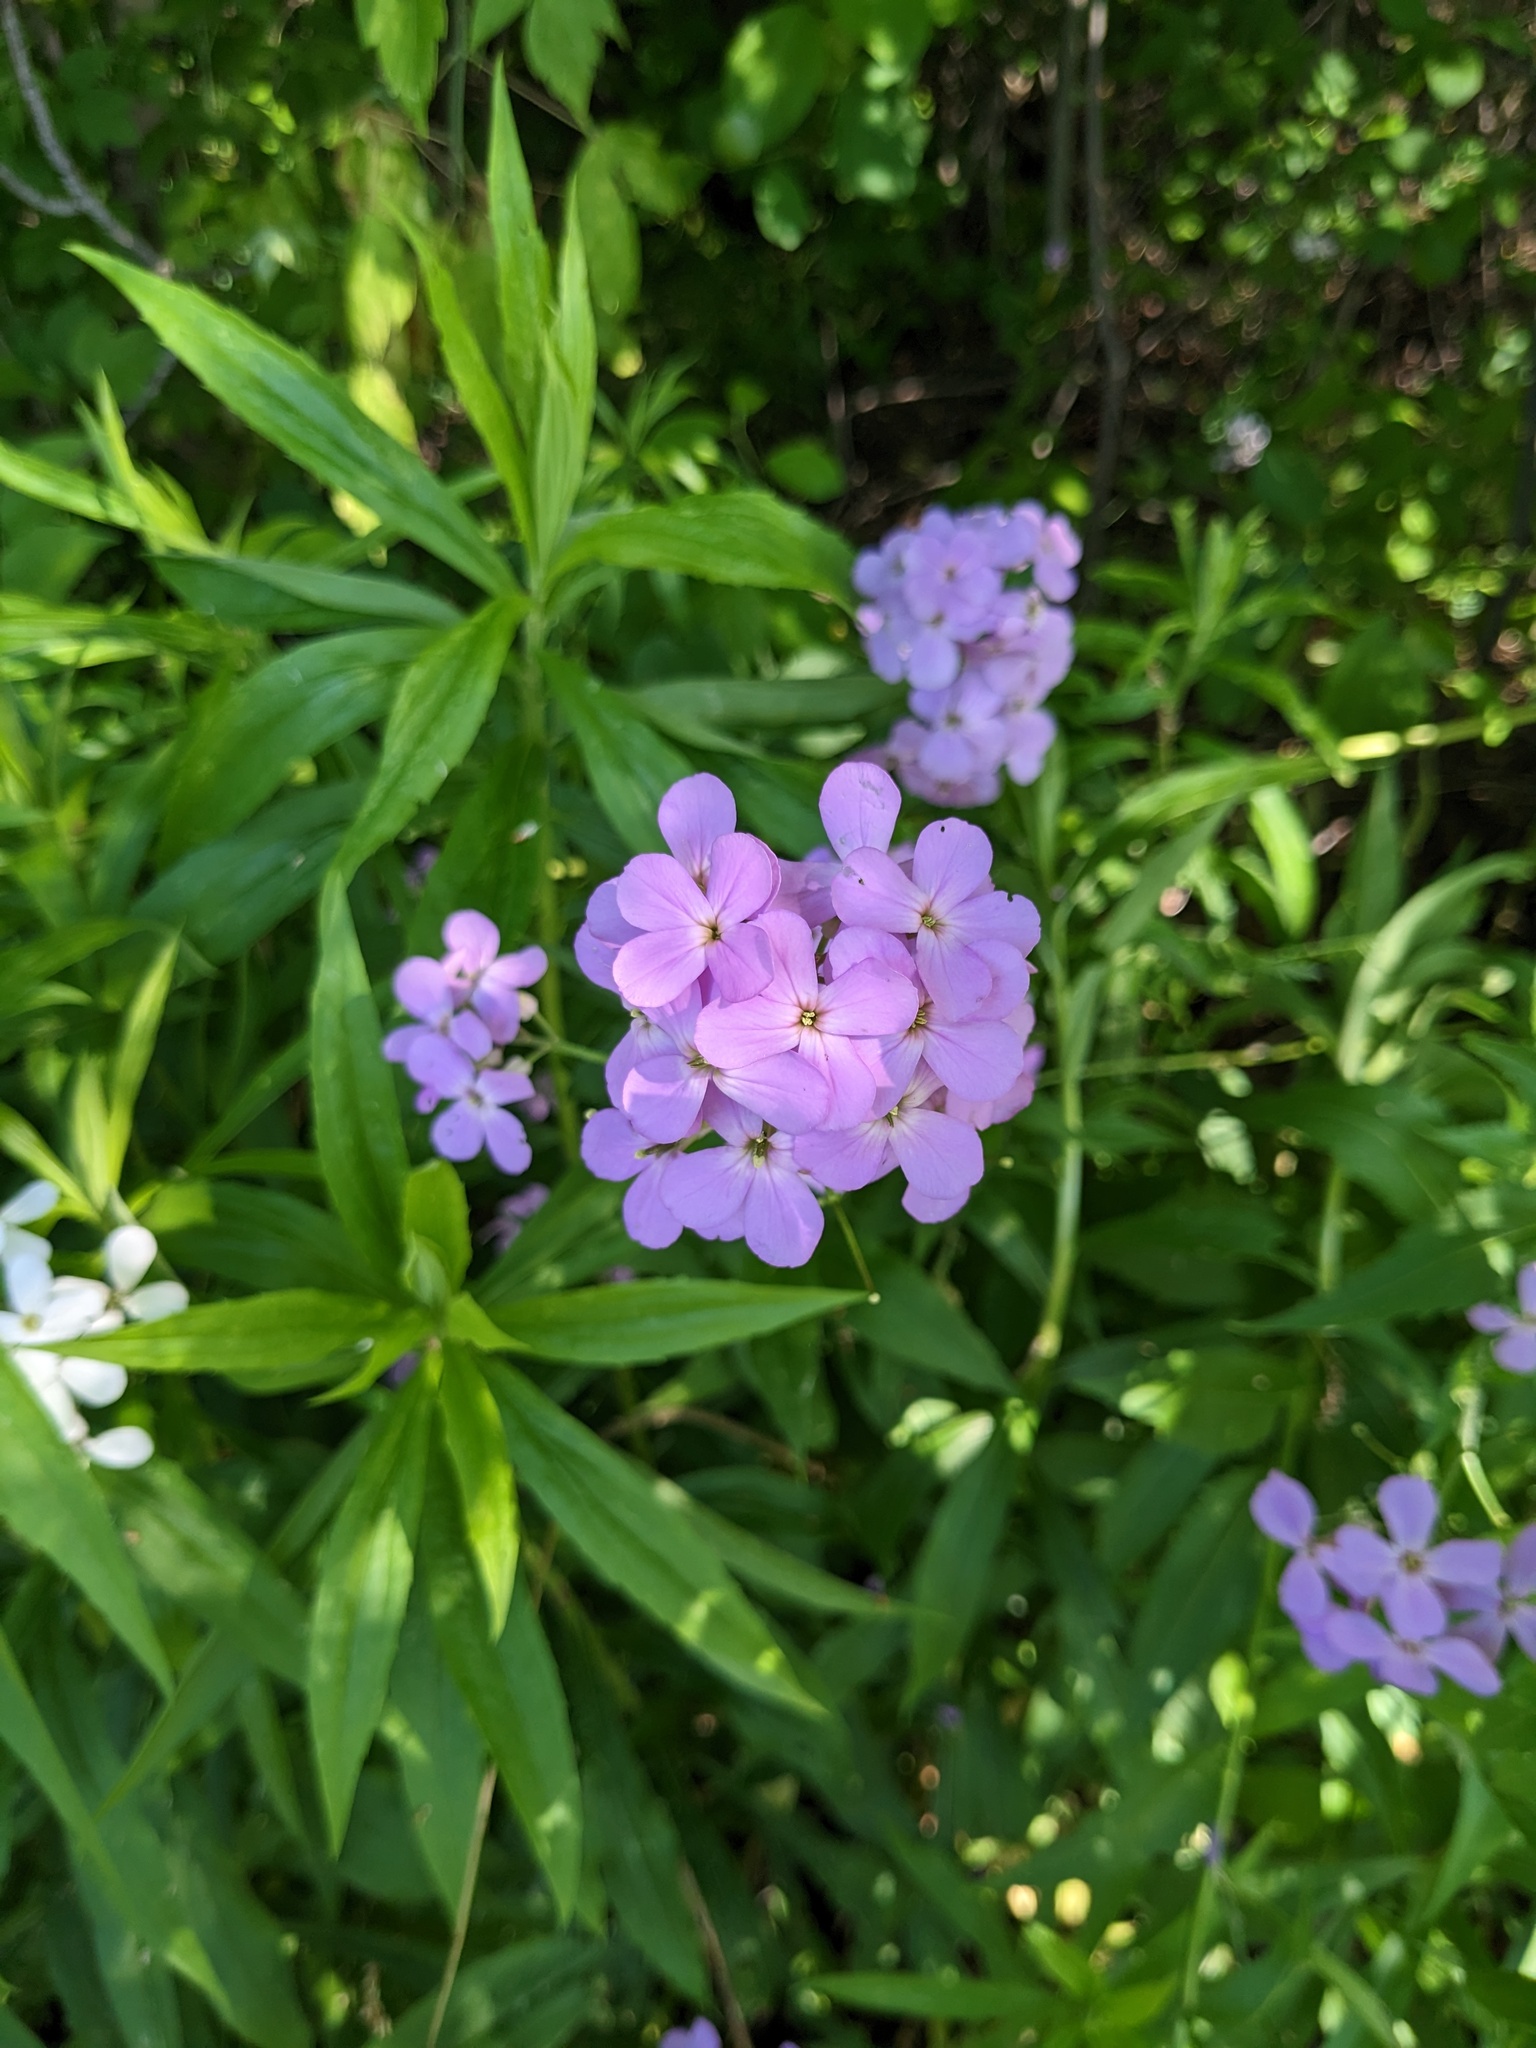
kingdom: Plantae
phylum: Tracheophyta
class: Magnoliopsida
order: Brassicales
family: Brassicaceae
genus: Hesperis
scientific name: Hesperis matronalis
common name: Dame's-violet
